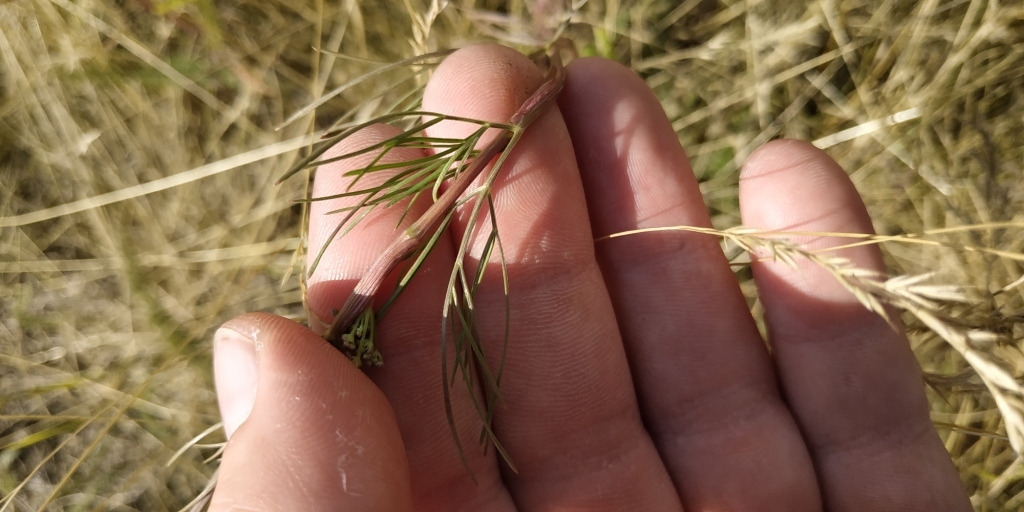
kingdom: Plantae
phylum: Tracheophyta
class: Magnoliopsida
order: Apiales
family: Apiaceae
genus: Seseli
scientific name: Seseli strictum
